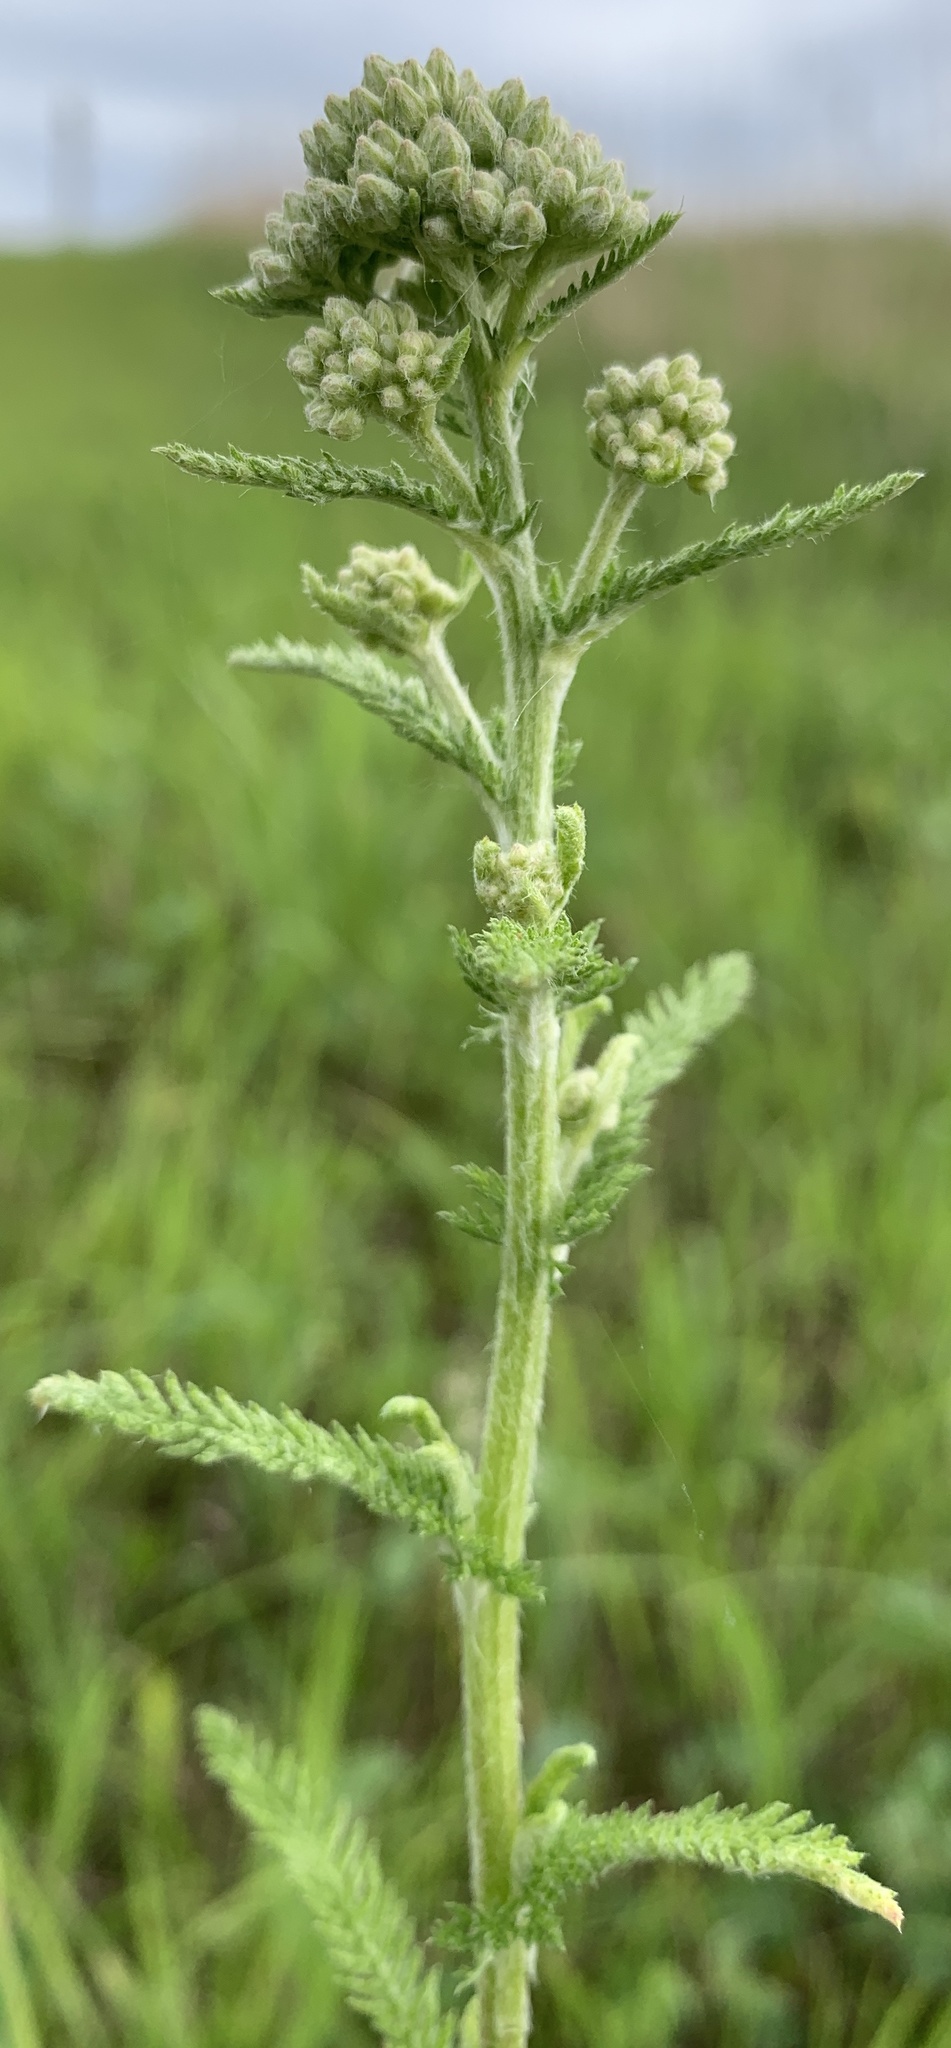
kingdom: Plantae
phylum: Tracheophyta
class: Magnoliopsida
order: Asterales
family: Asteraceae
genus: Achillea
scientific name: Achillea millefolium
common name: Yarrow
